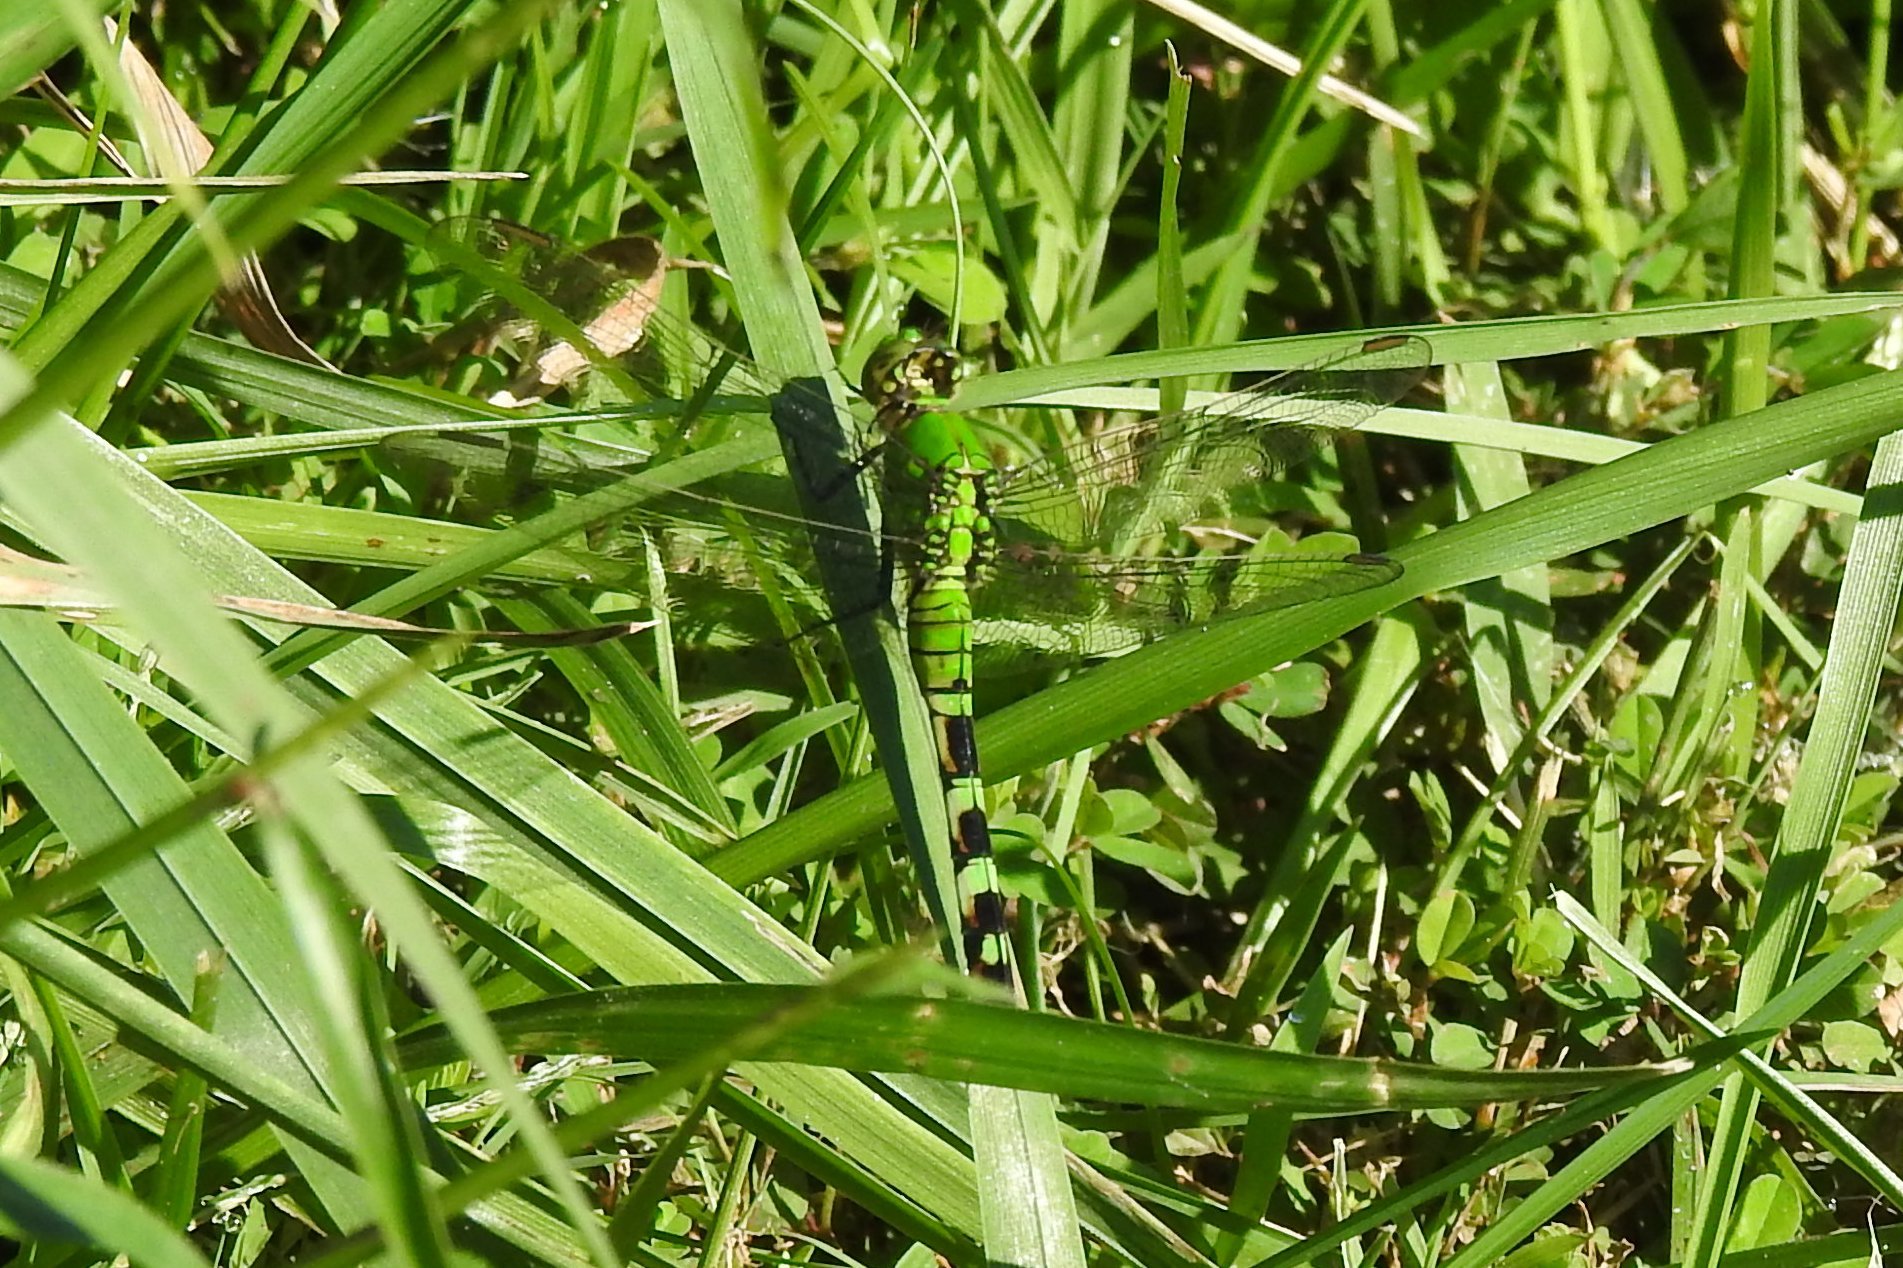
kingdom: Animalia
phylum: Arthropoda
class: Insecta
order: Odonata
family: Libellulidae
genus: Erythemis
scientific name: Erythemis simplicicollis
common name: Eastern pondhawk
